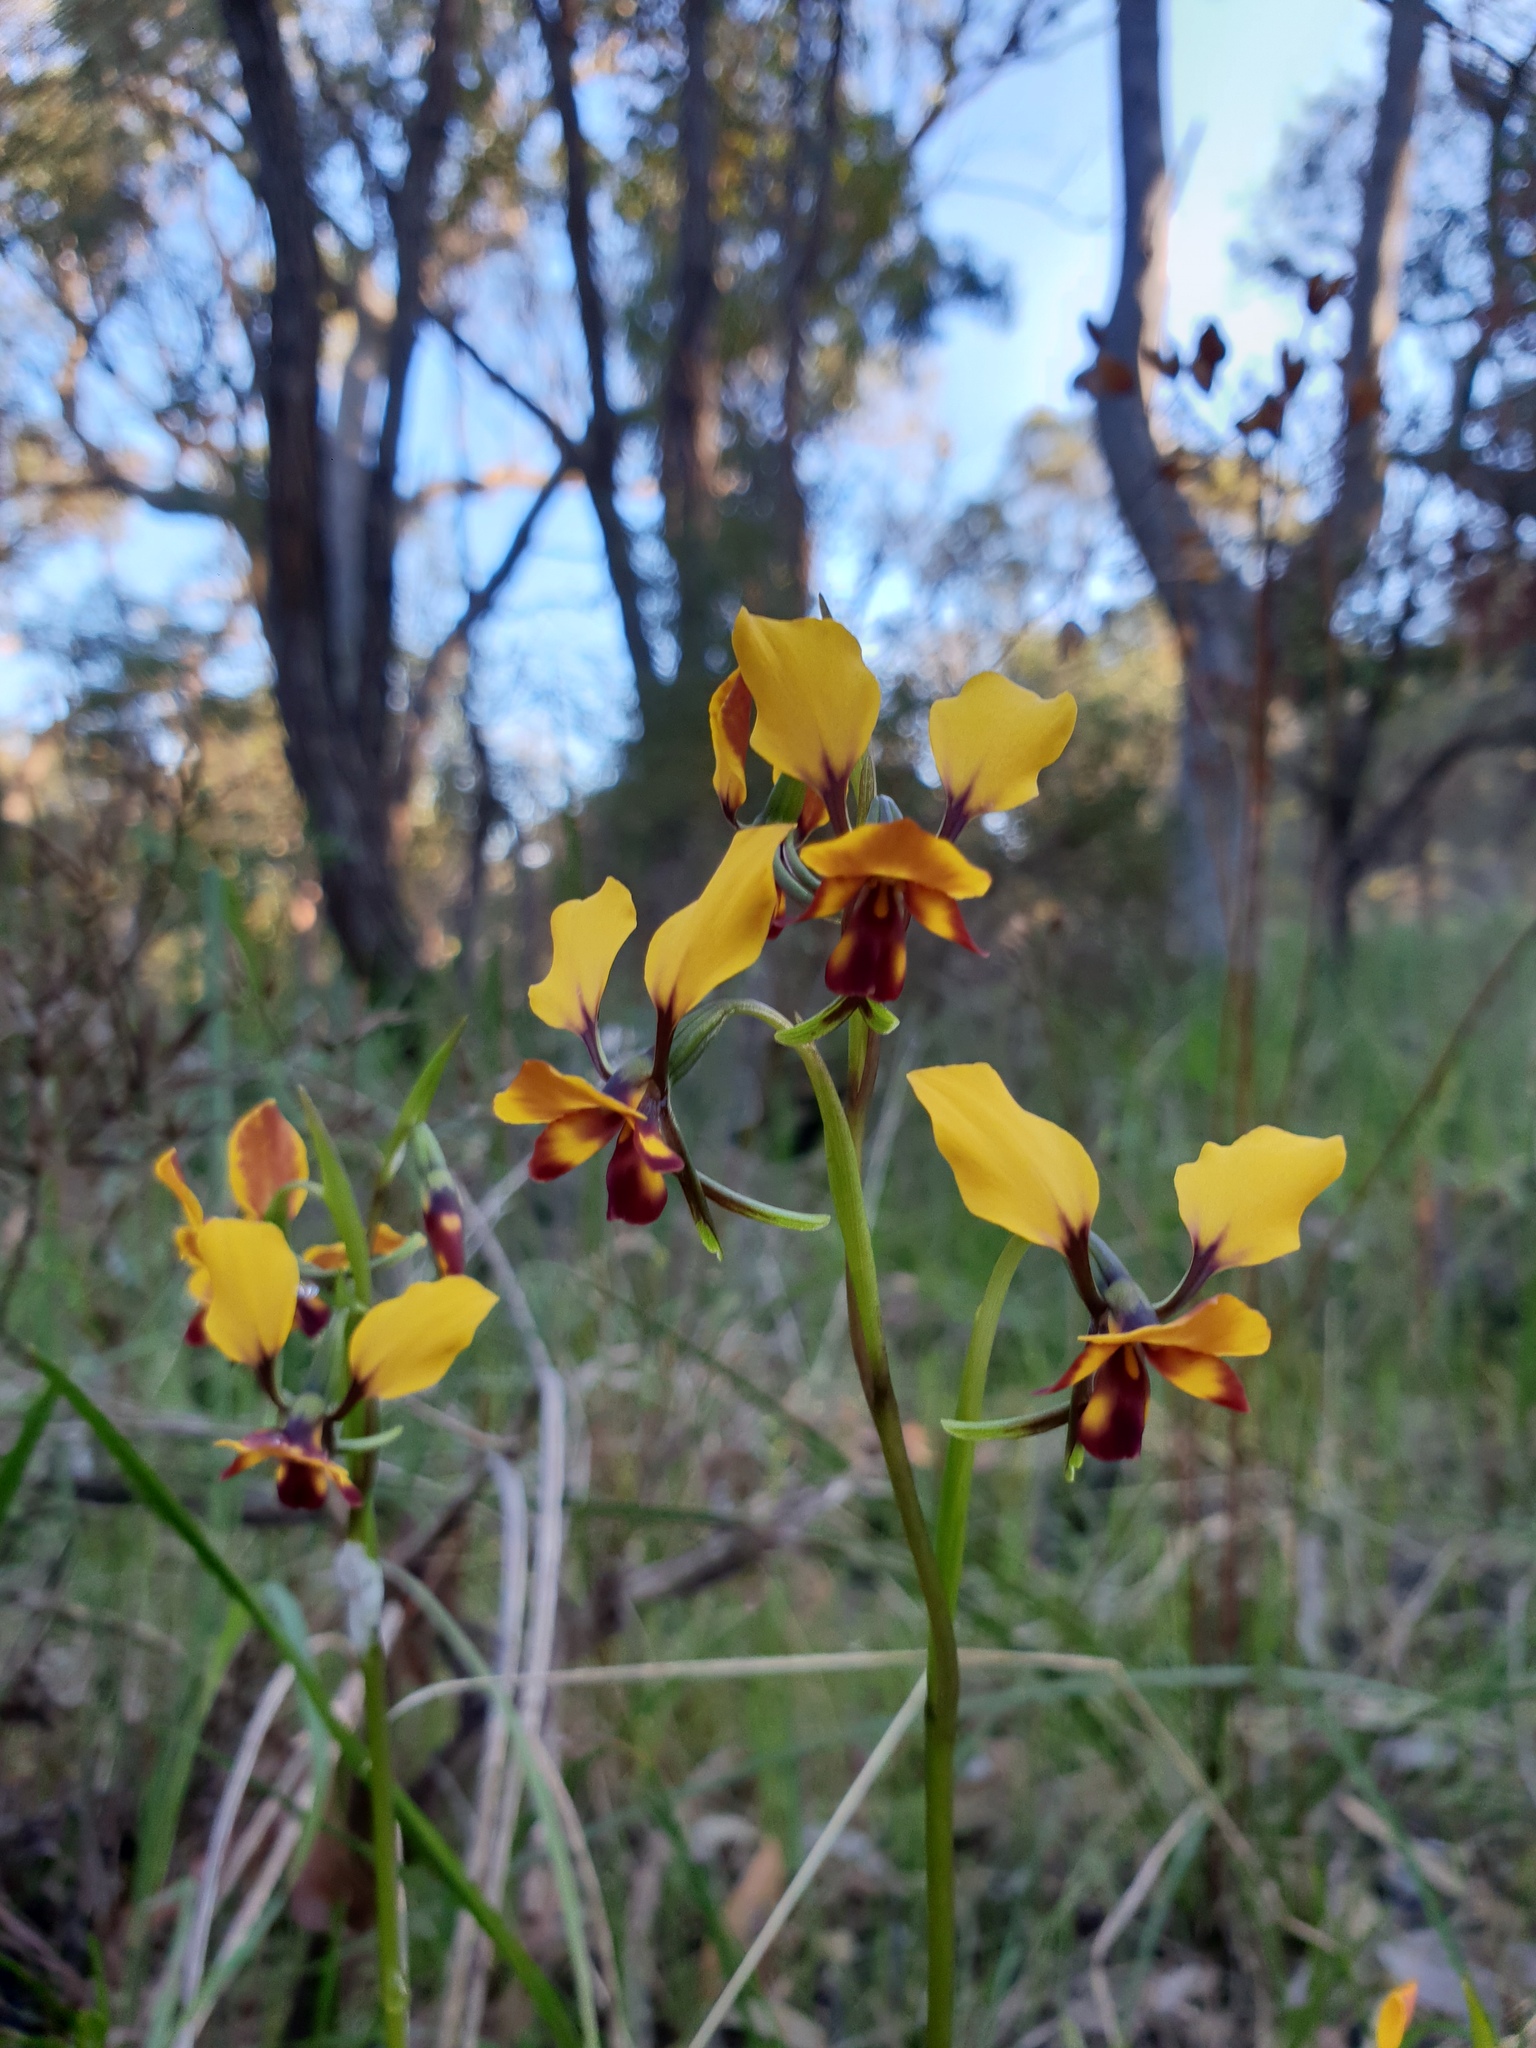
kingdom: Plantae
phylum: Tracheophyta
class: Liliopsida
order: Asparagales
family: Orchidaceae
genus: Diuris
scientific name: Diuris corymbosa
